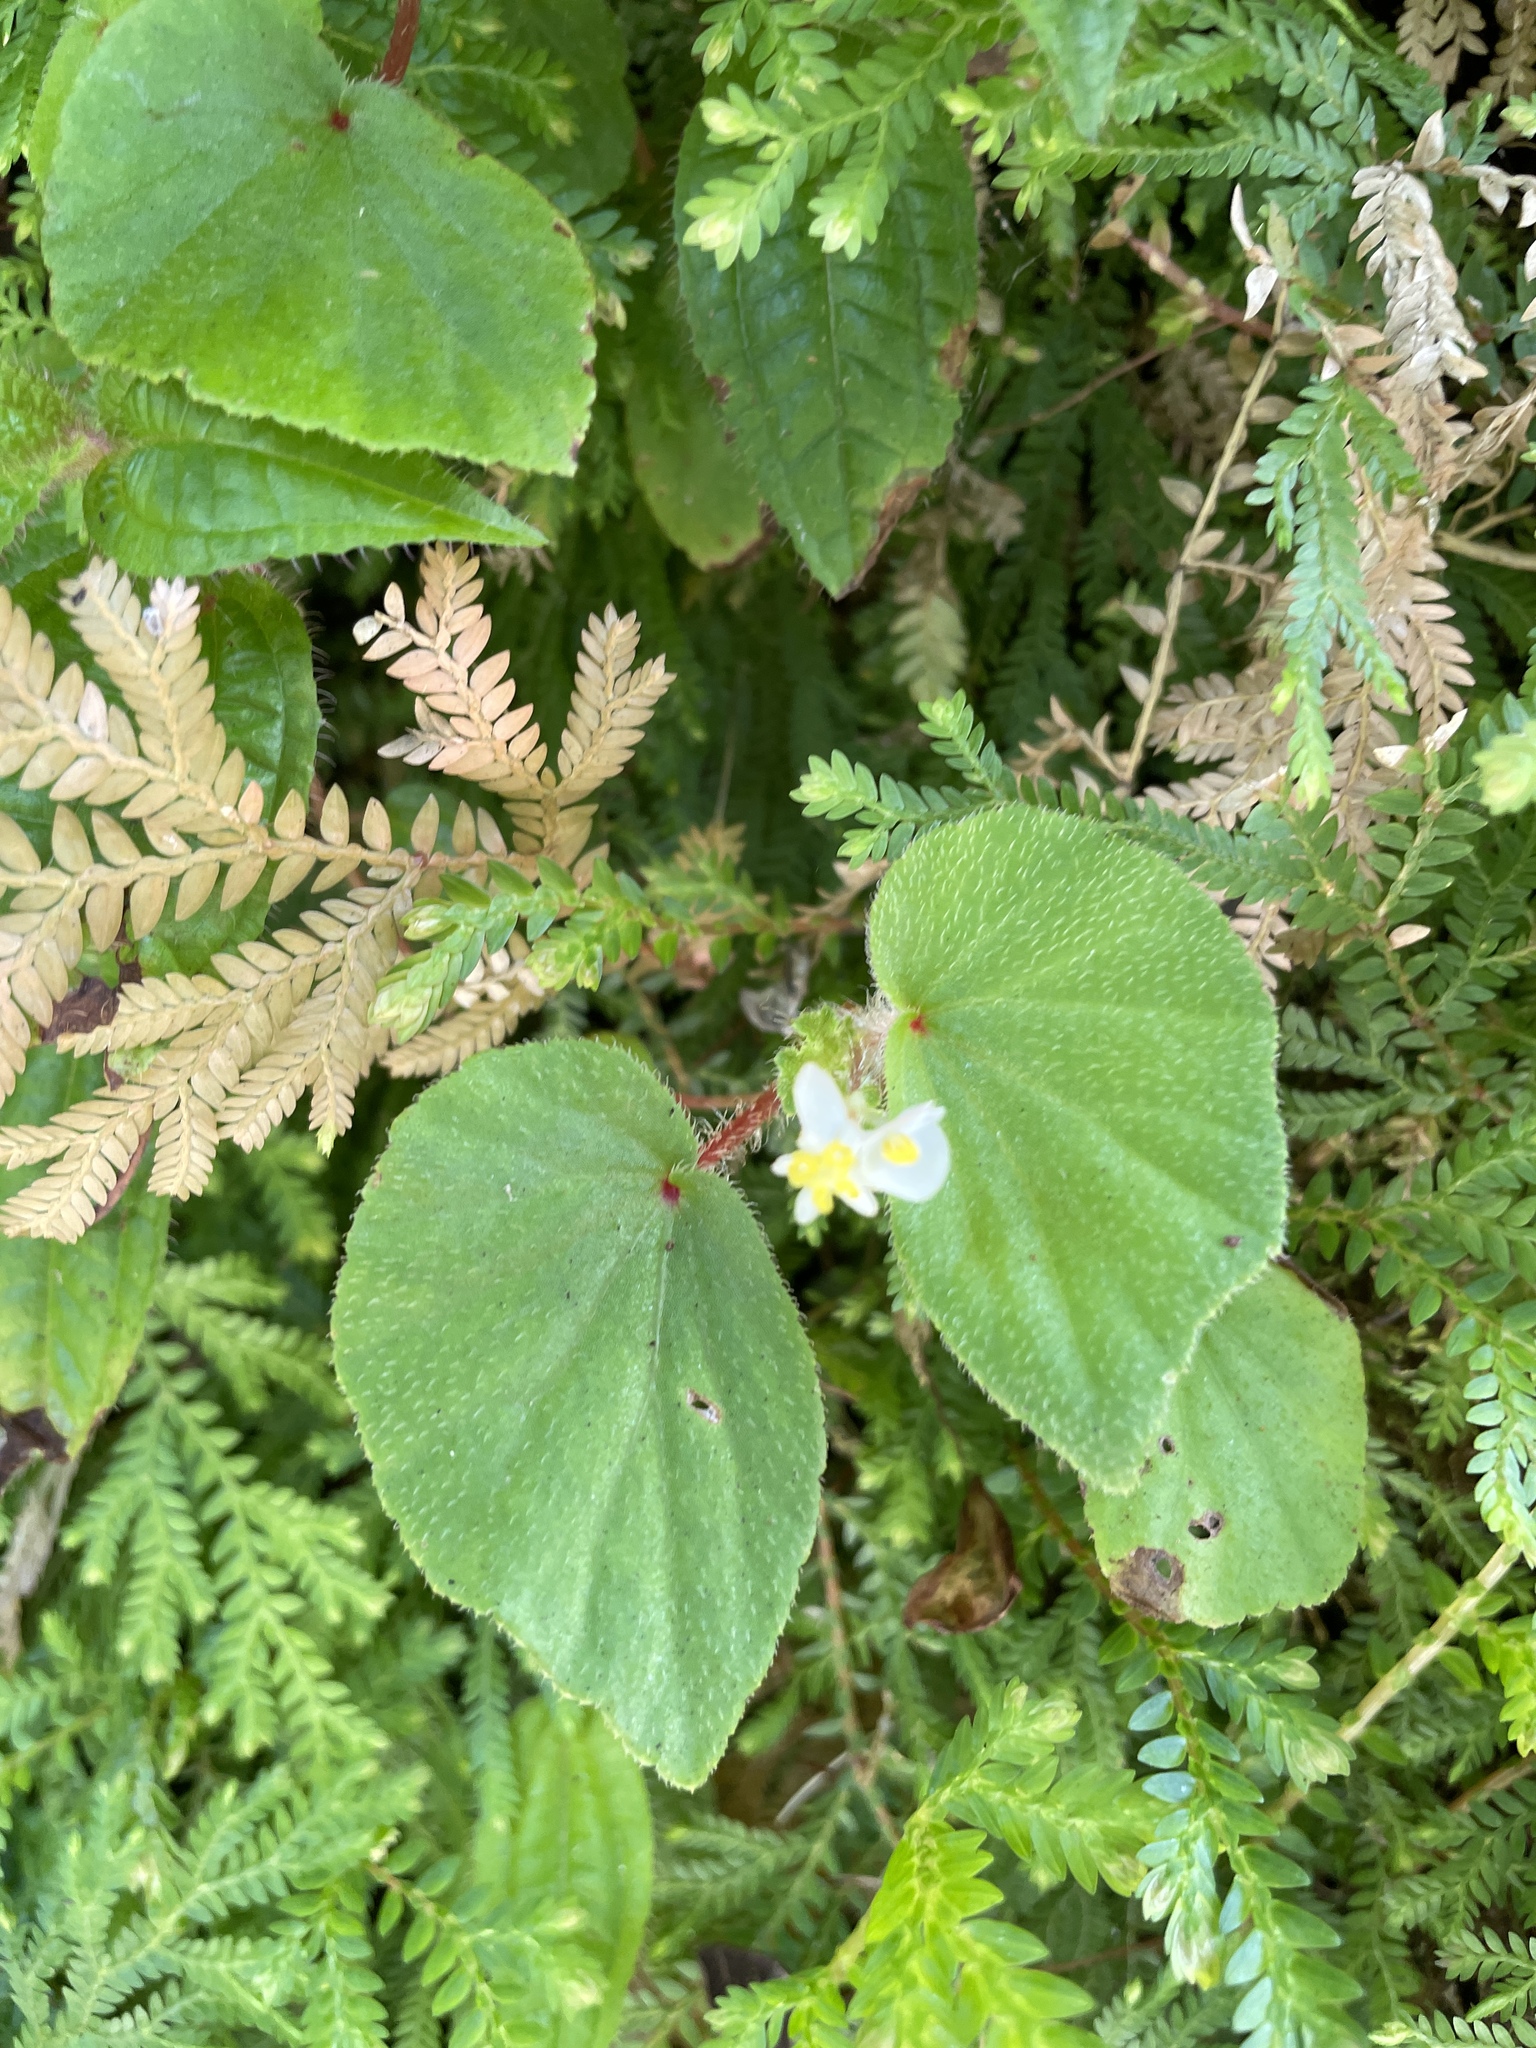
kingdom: Plantae
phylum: Tracheophyta
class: Magnoliopsida
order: Cucurbitales
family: Begoniaceae
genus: Begonia
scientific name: Begonia hirtella
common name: Brazilian begonia
